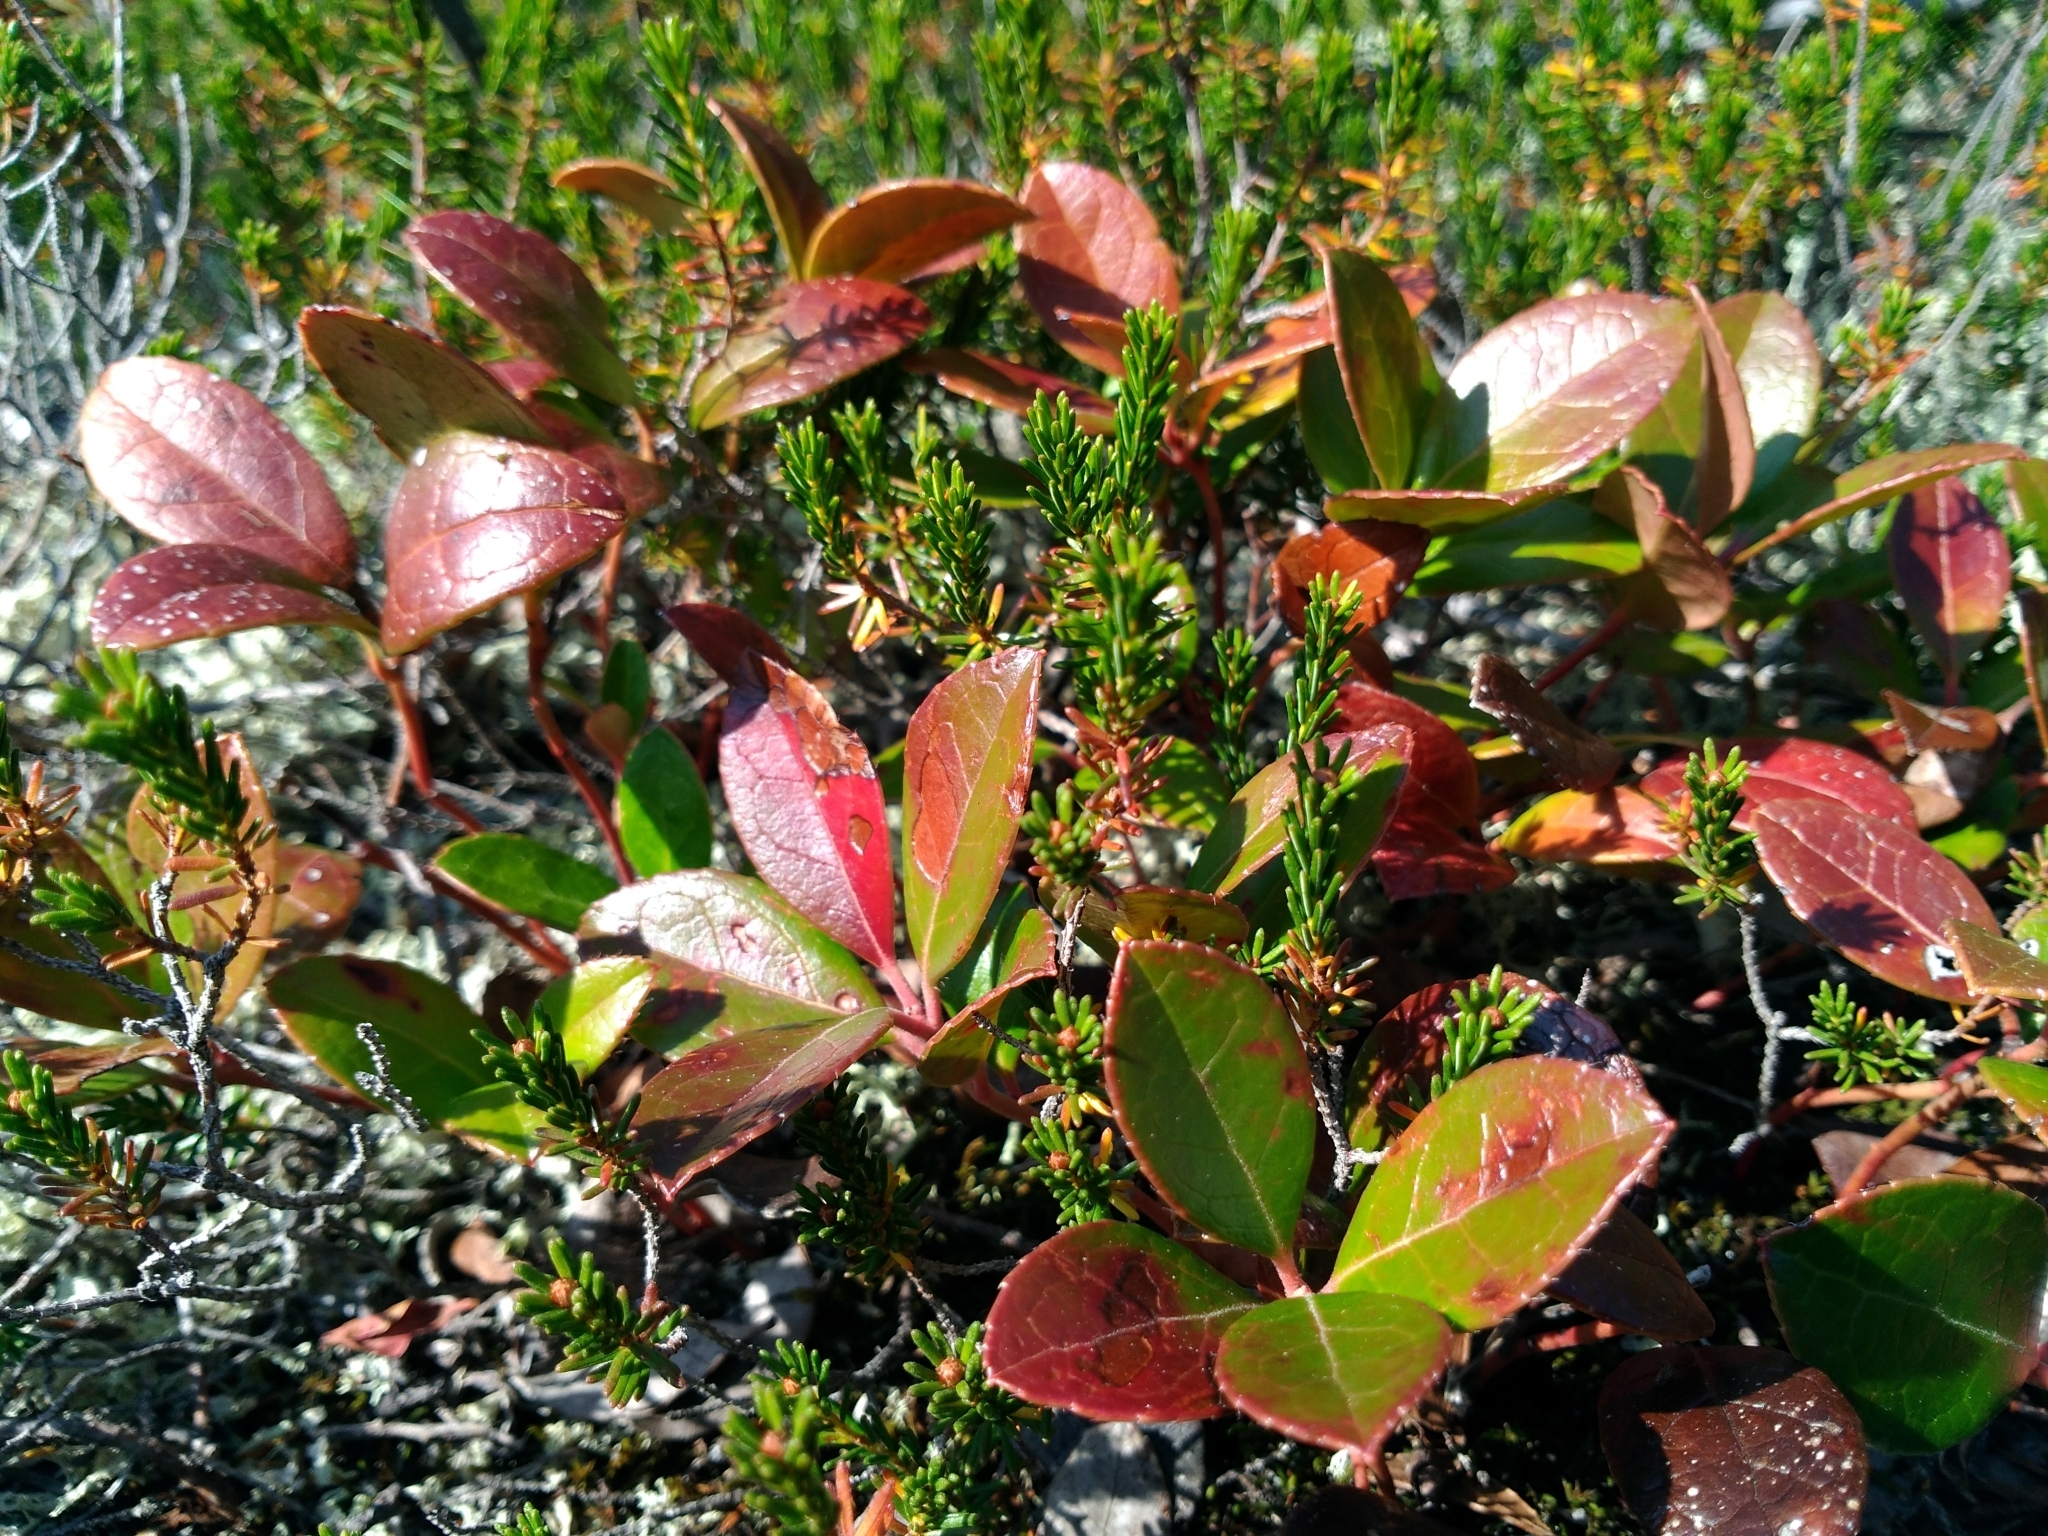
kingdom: Plantae
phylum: Tracheophyta
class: Magnoliopsida
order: Ericales
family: Ericaceae
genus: Gaultheria
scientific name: Gaultheria procumbens
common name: Checkerberry
